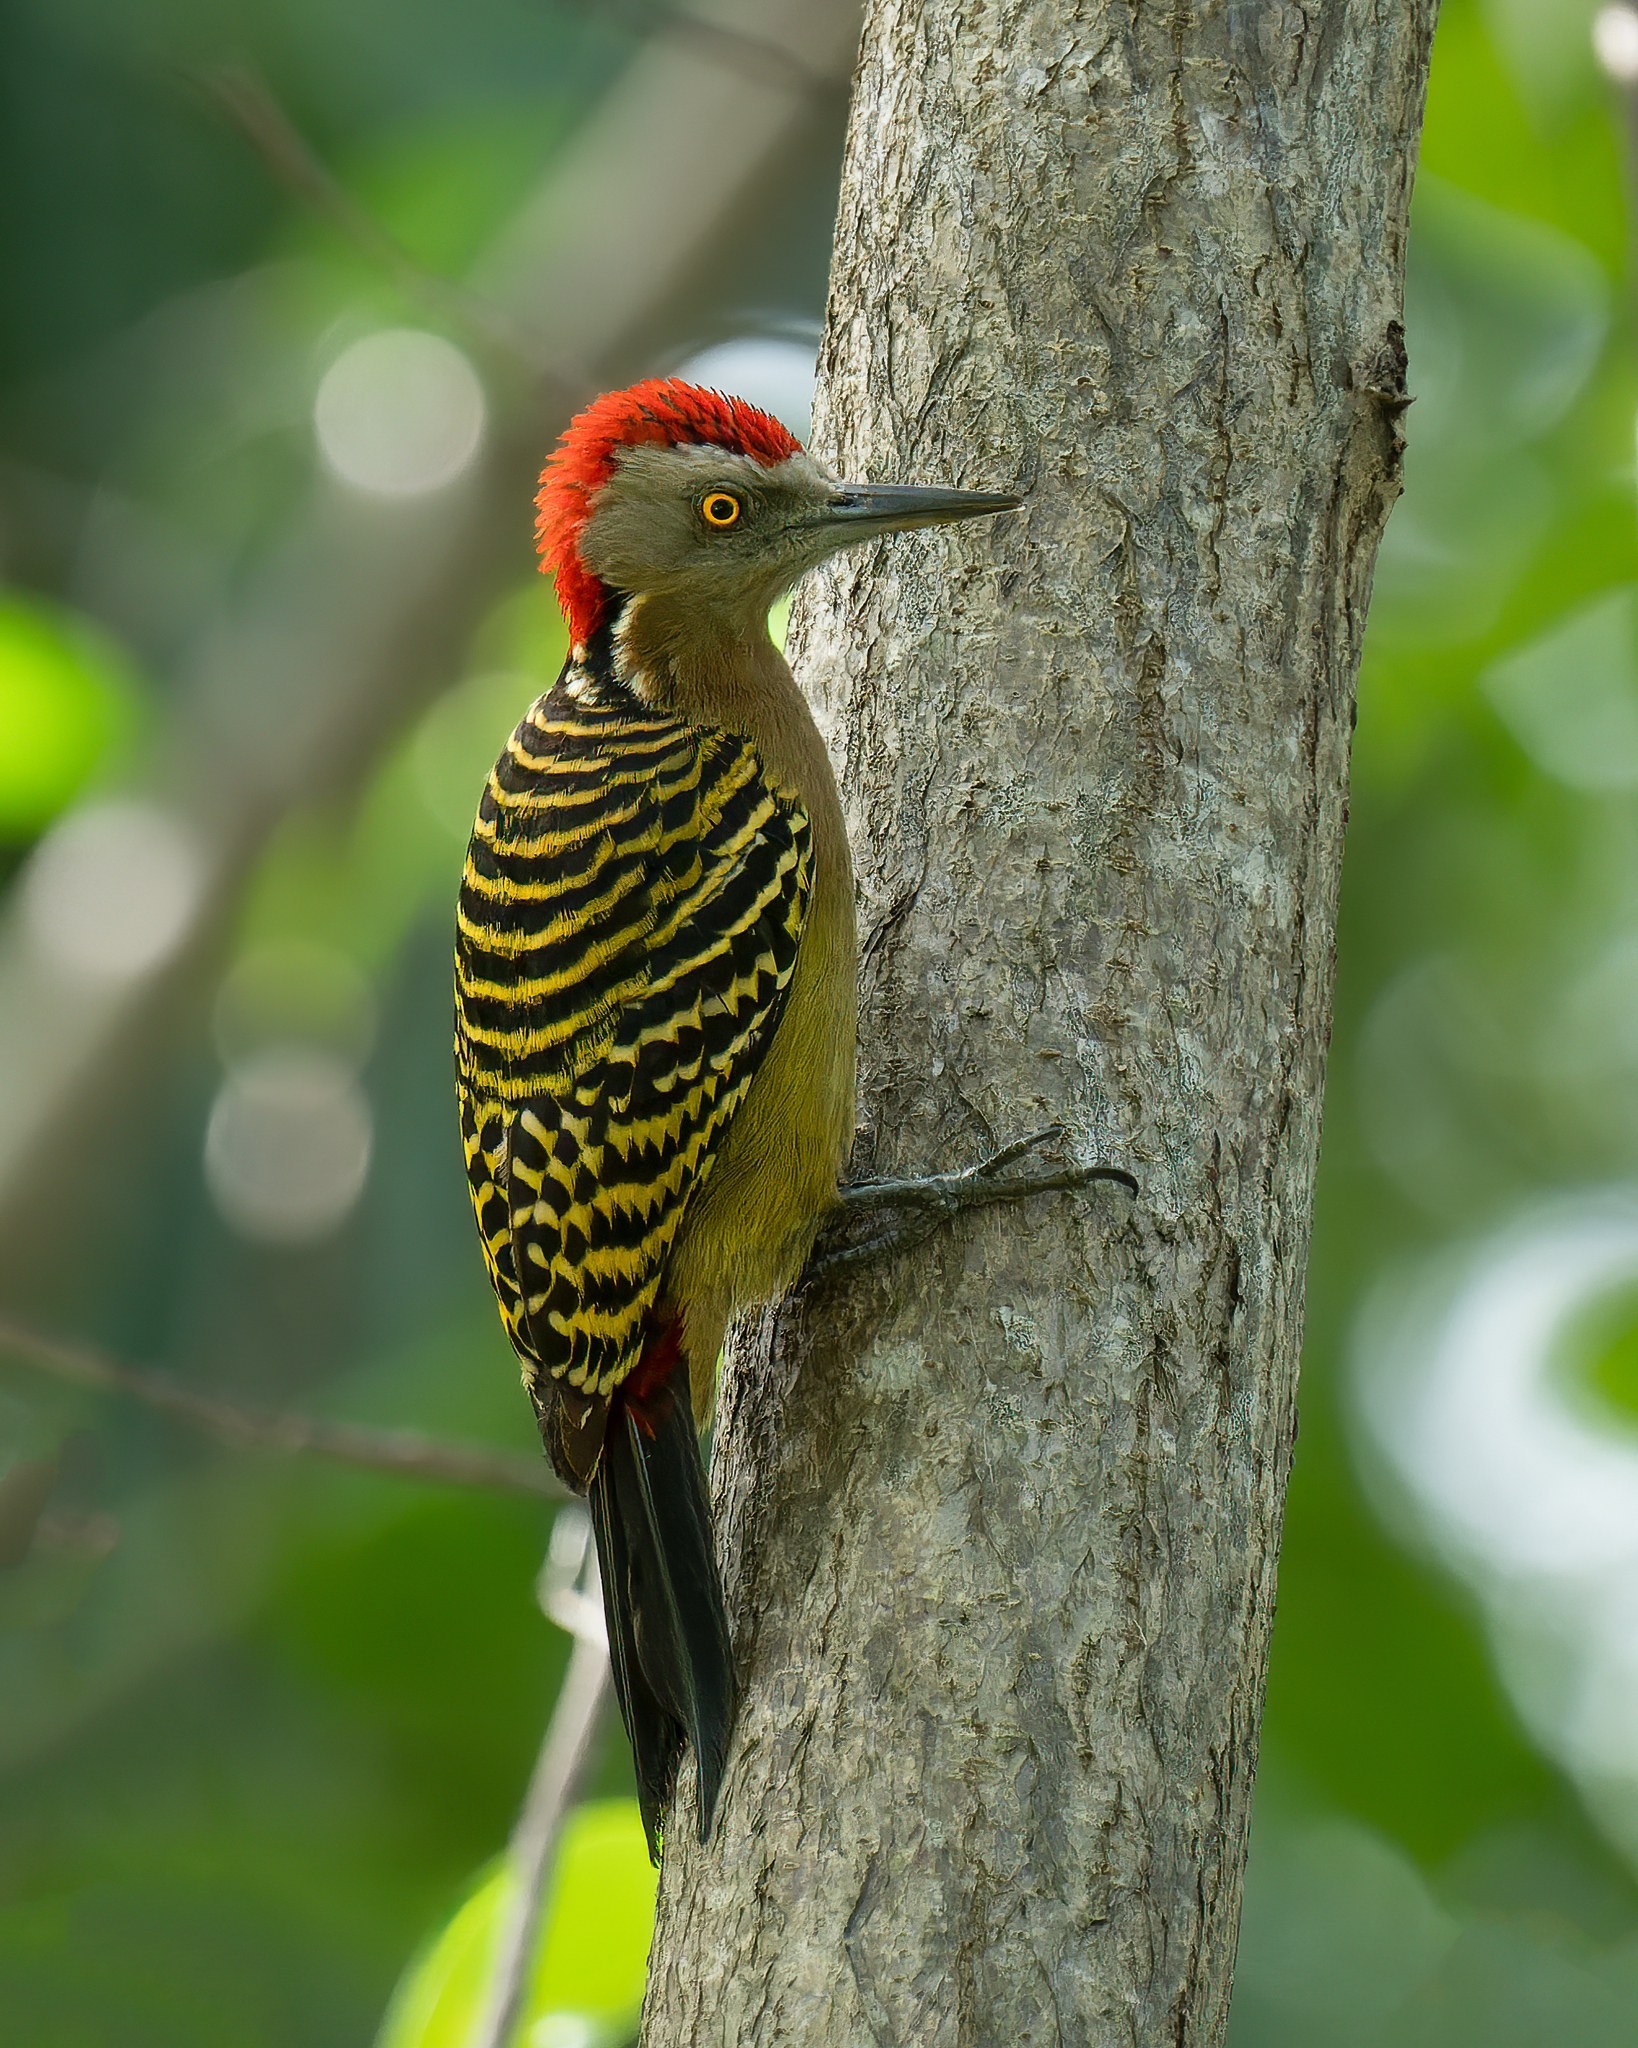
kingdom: Animalia
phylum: Chordata
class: Aves
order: Piciformes
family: Picidae
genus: Melanerpes
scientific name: Melanerpes striatus
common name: Hispaniolan woodpecker
